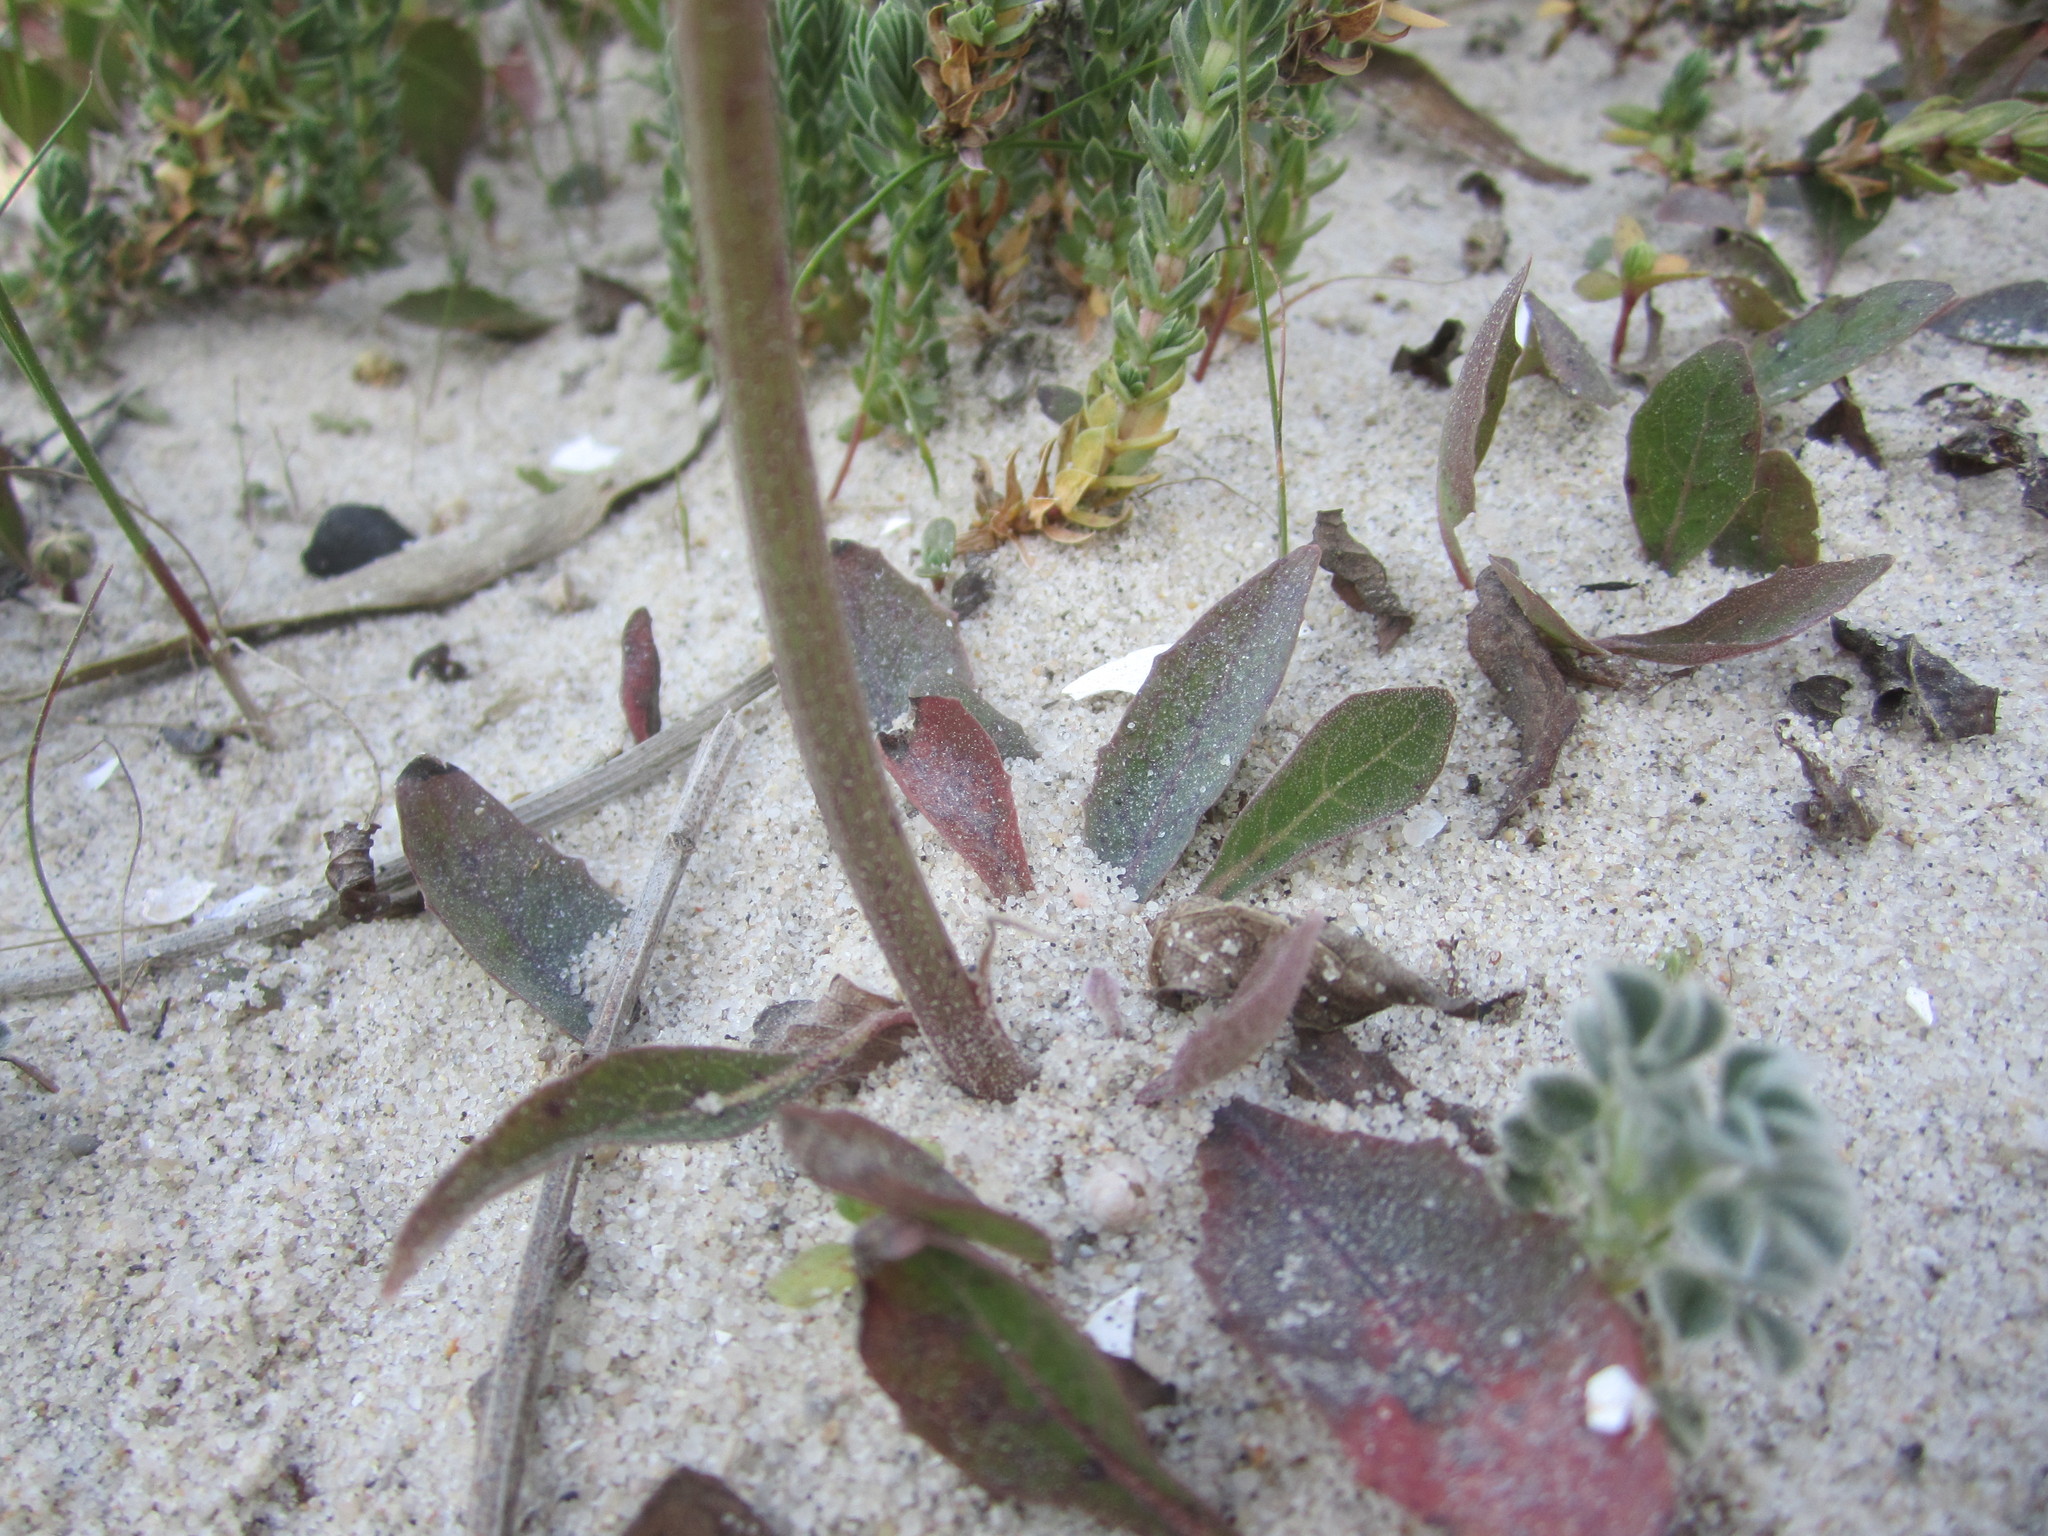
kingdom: Plantae
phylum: Tracheophyta
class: Magnoliopsida
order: Asterales
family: Asteraceae
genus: Aetheorhiza
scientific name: Aetheorhiza bulbosa
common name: Tuberous hawk's-beard
